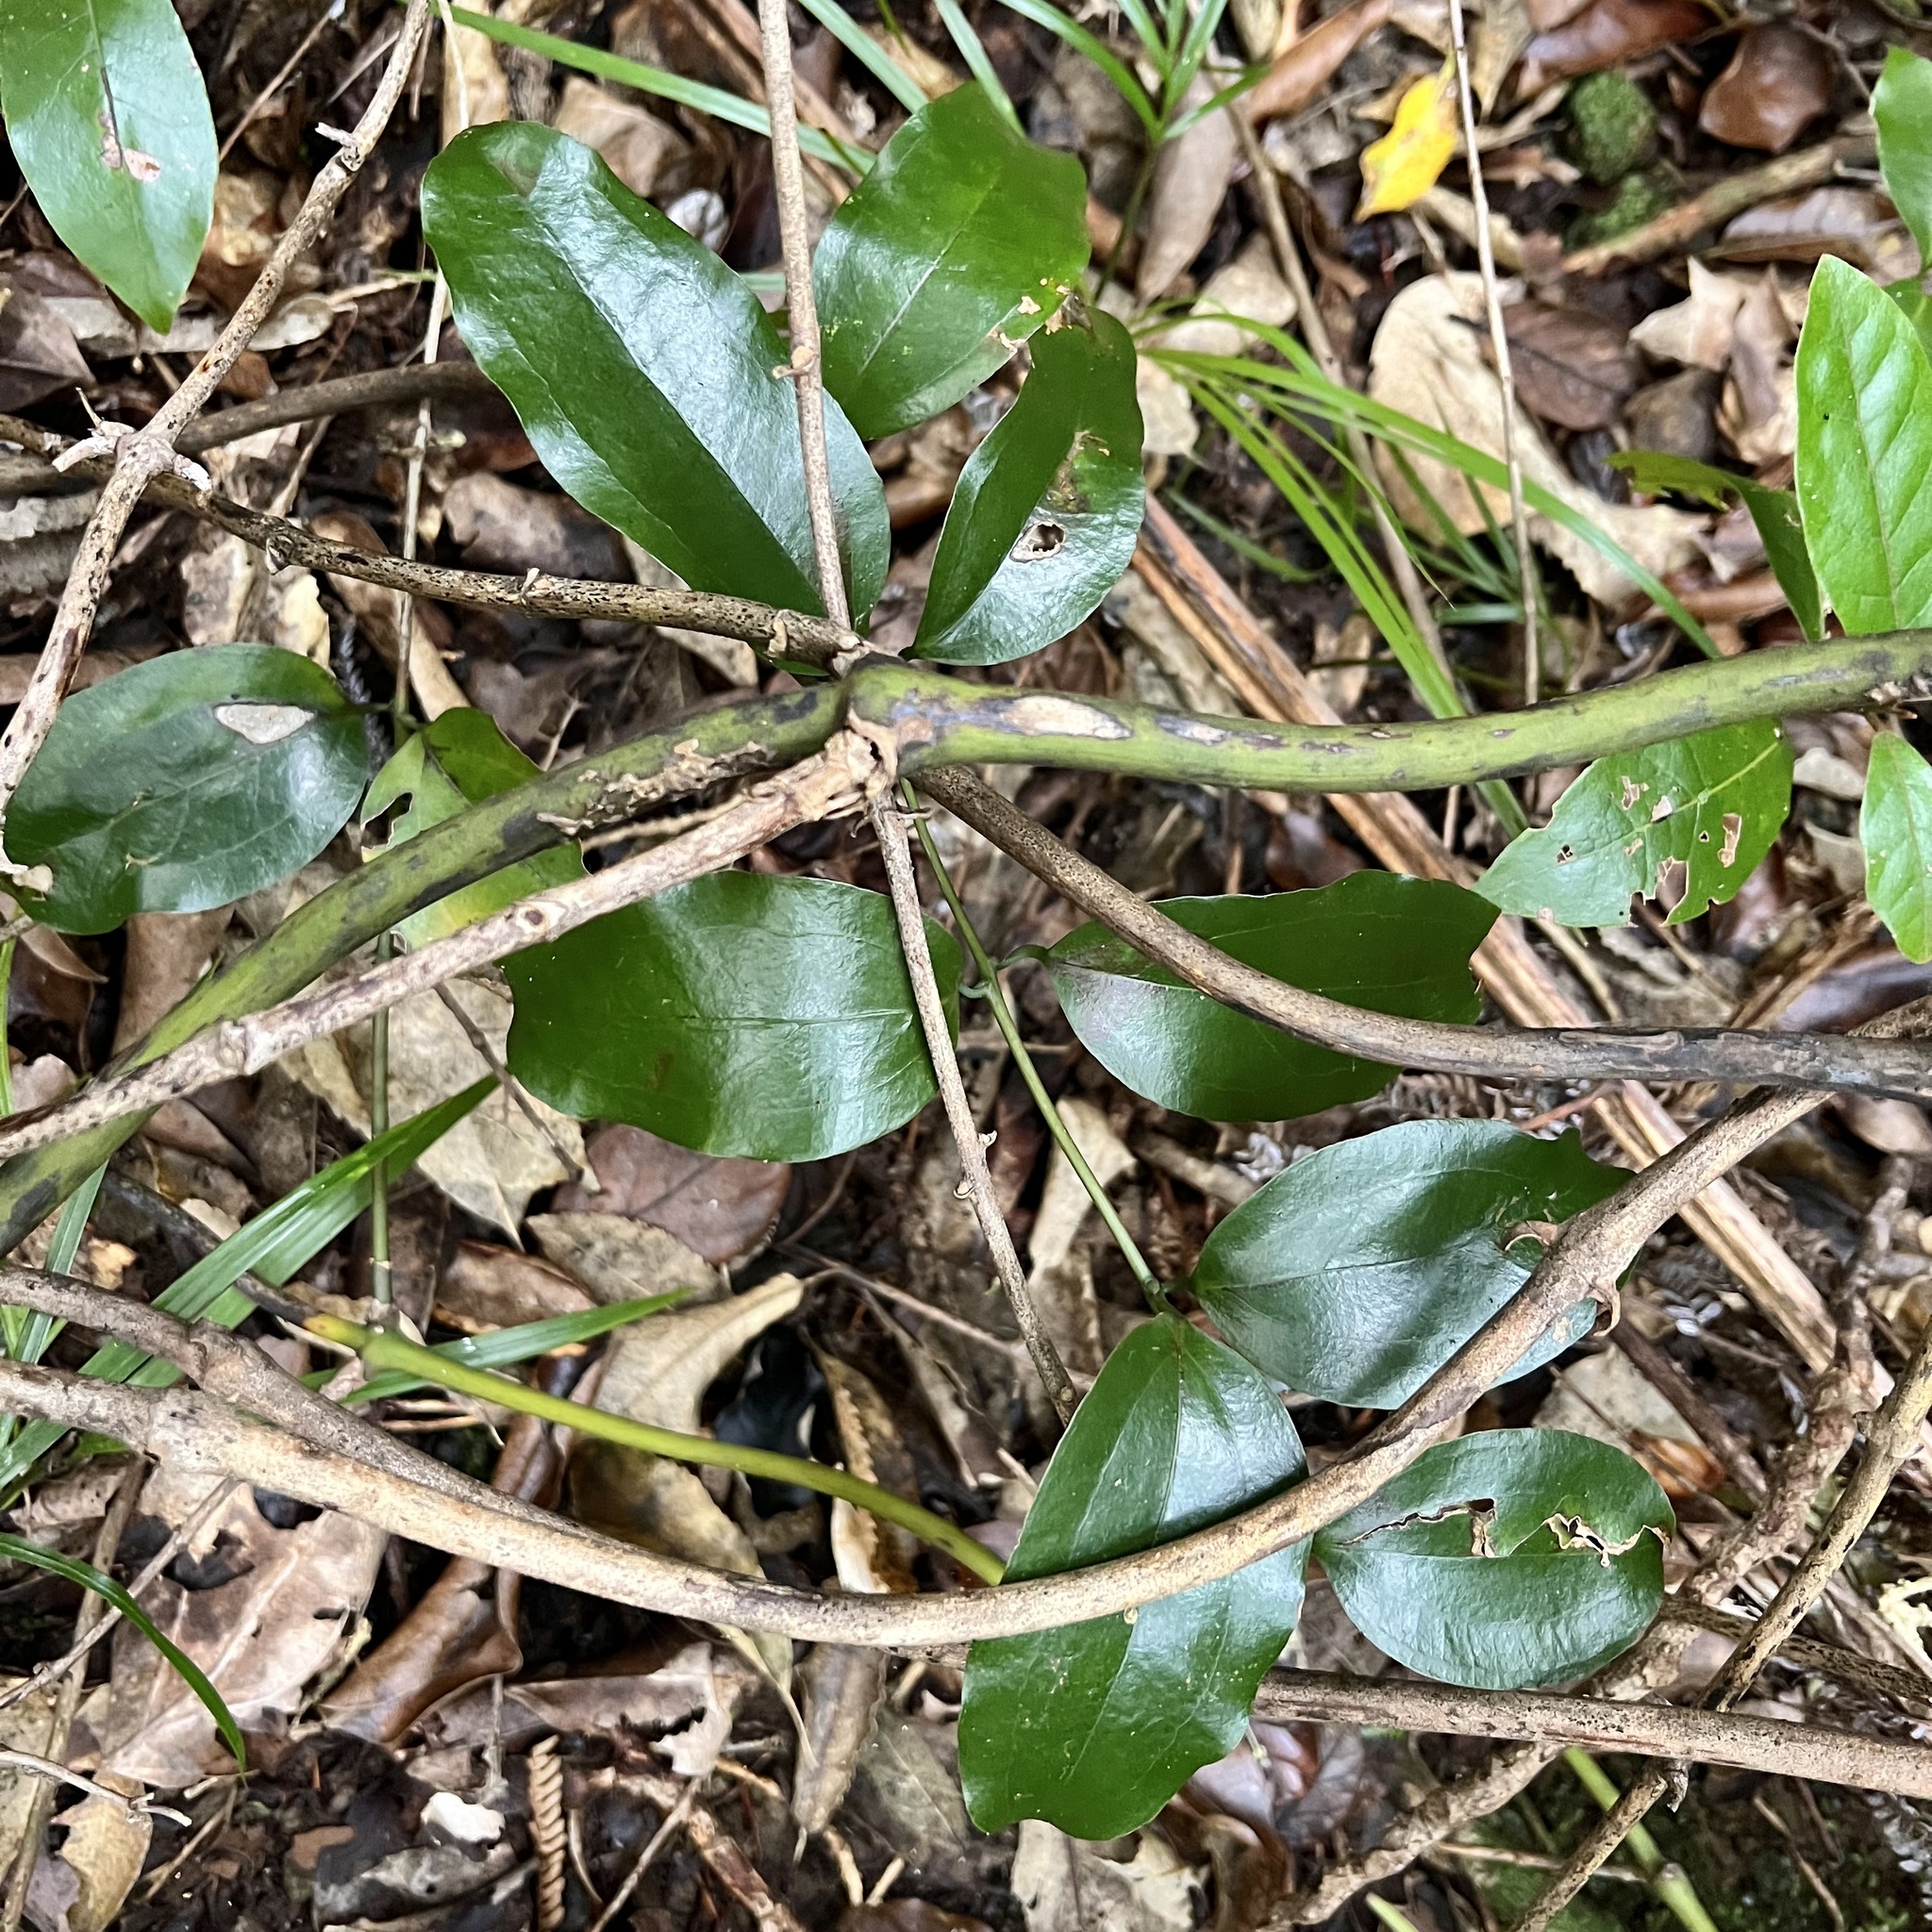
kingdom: Plantae
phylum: Tracheophyta
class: Liliopsida
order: Liliales
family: Ripogonaceae
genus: Ripogonum
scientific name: Ripogonum scandens
